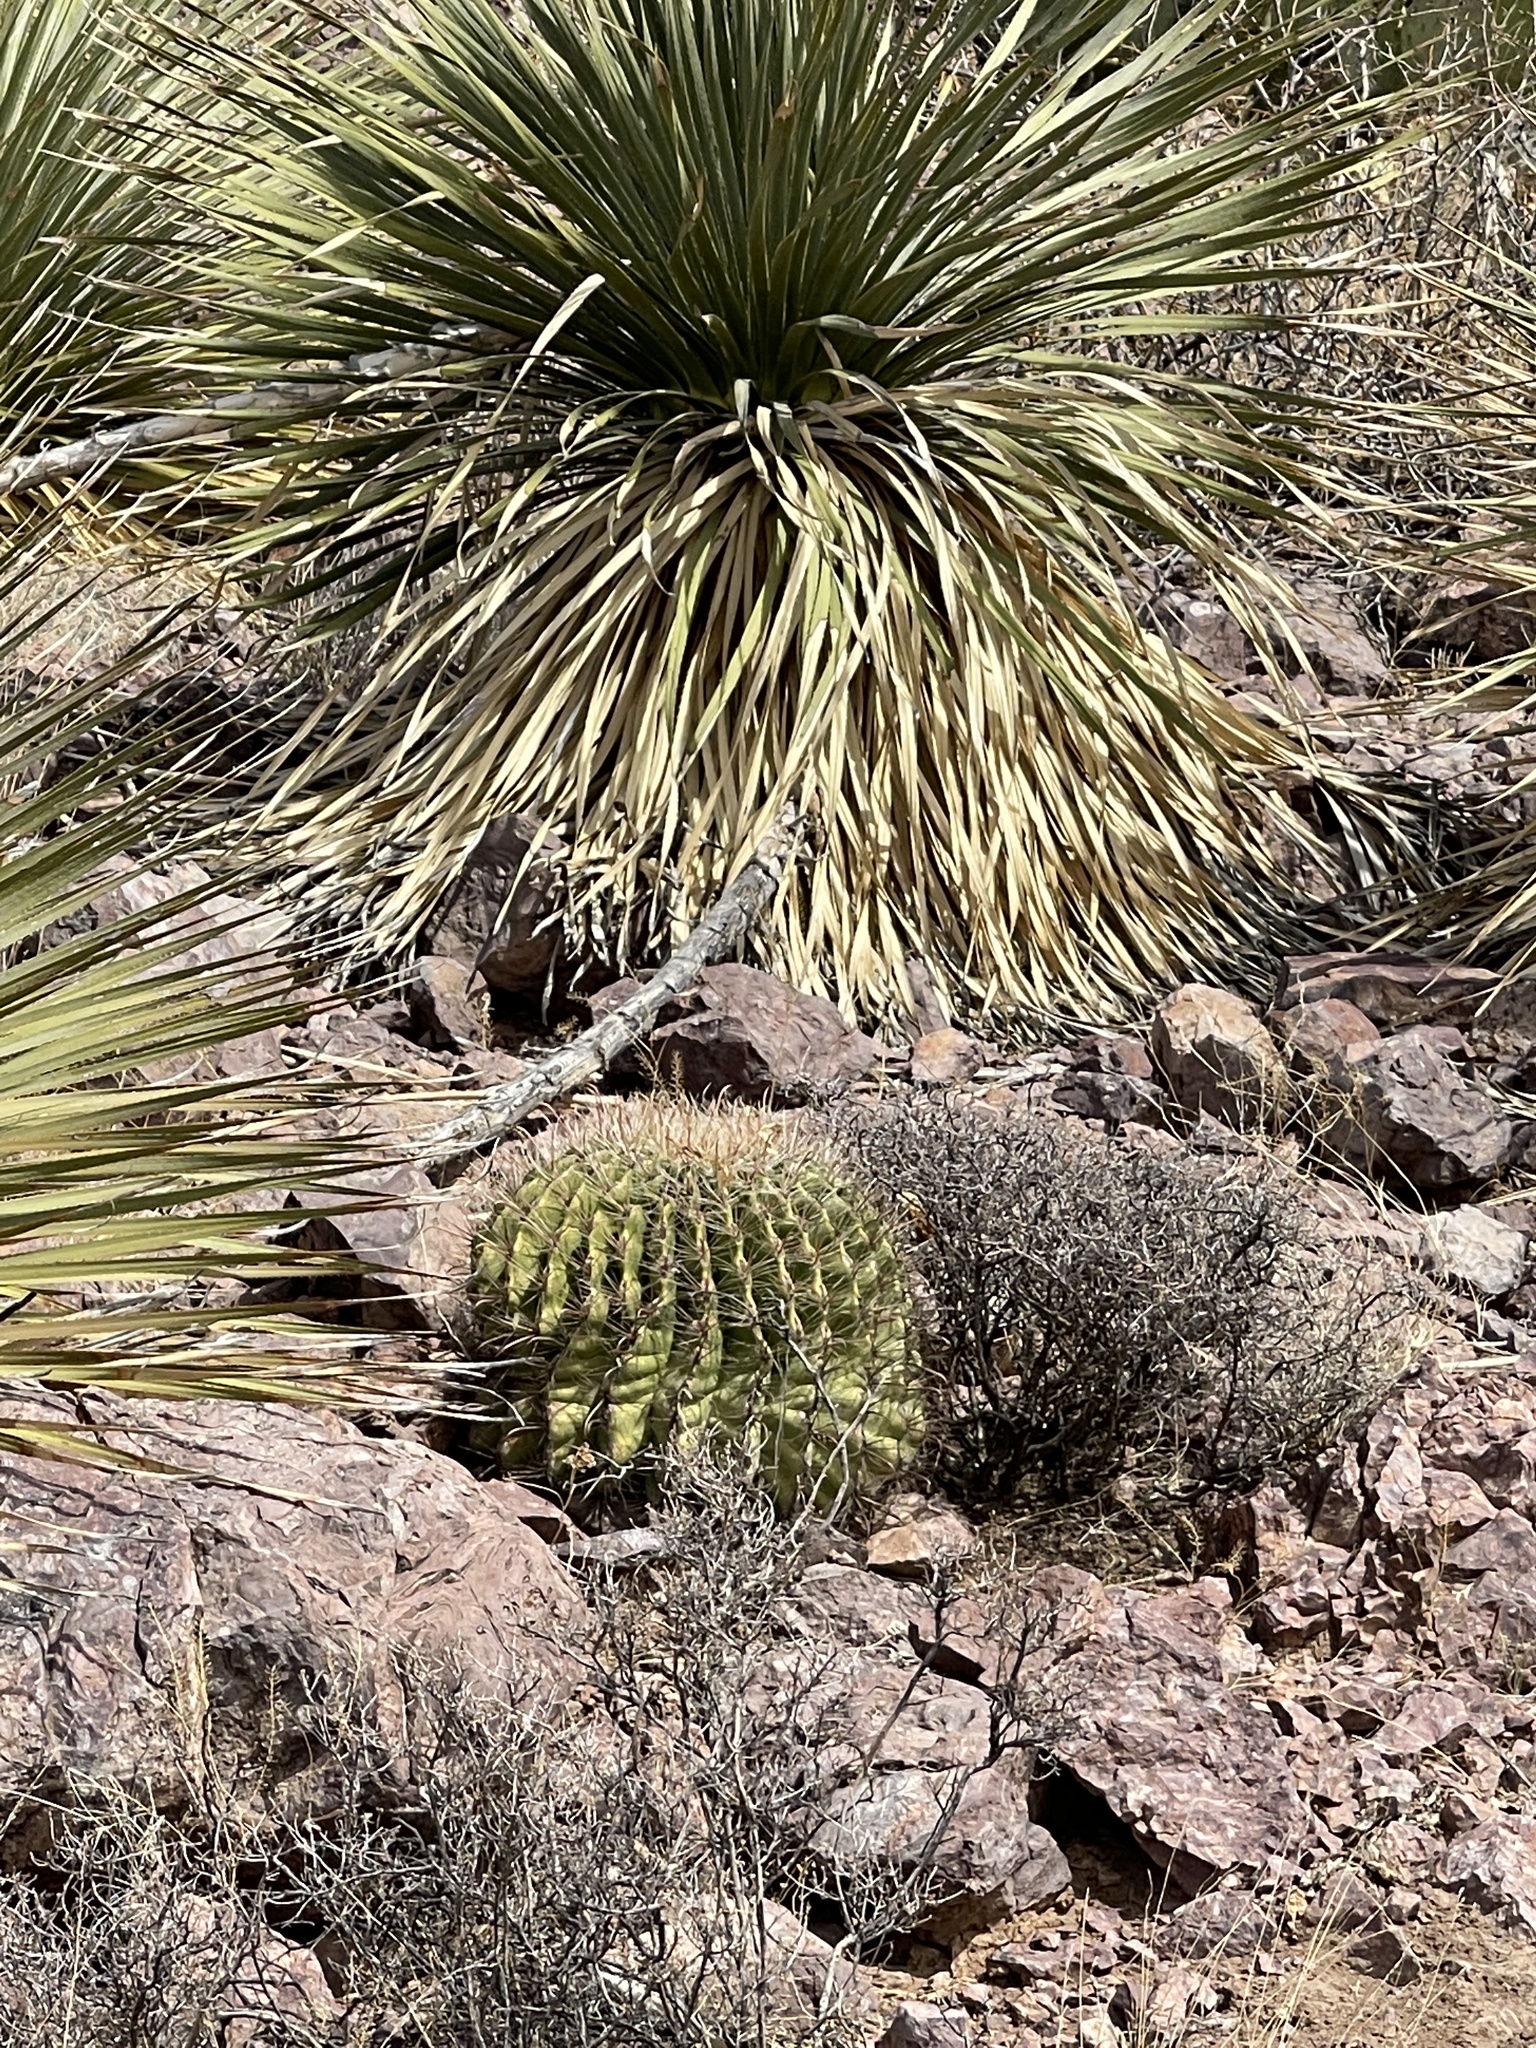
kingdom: Plantae
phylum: Tracheophyta
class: Magnoliopsida
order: Caryophyllales
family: Cactaceae
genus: Ferocactus
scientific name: Ferocactus wislizeni
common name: Candy barrel cactus
